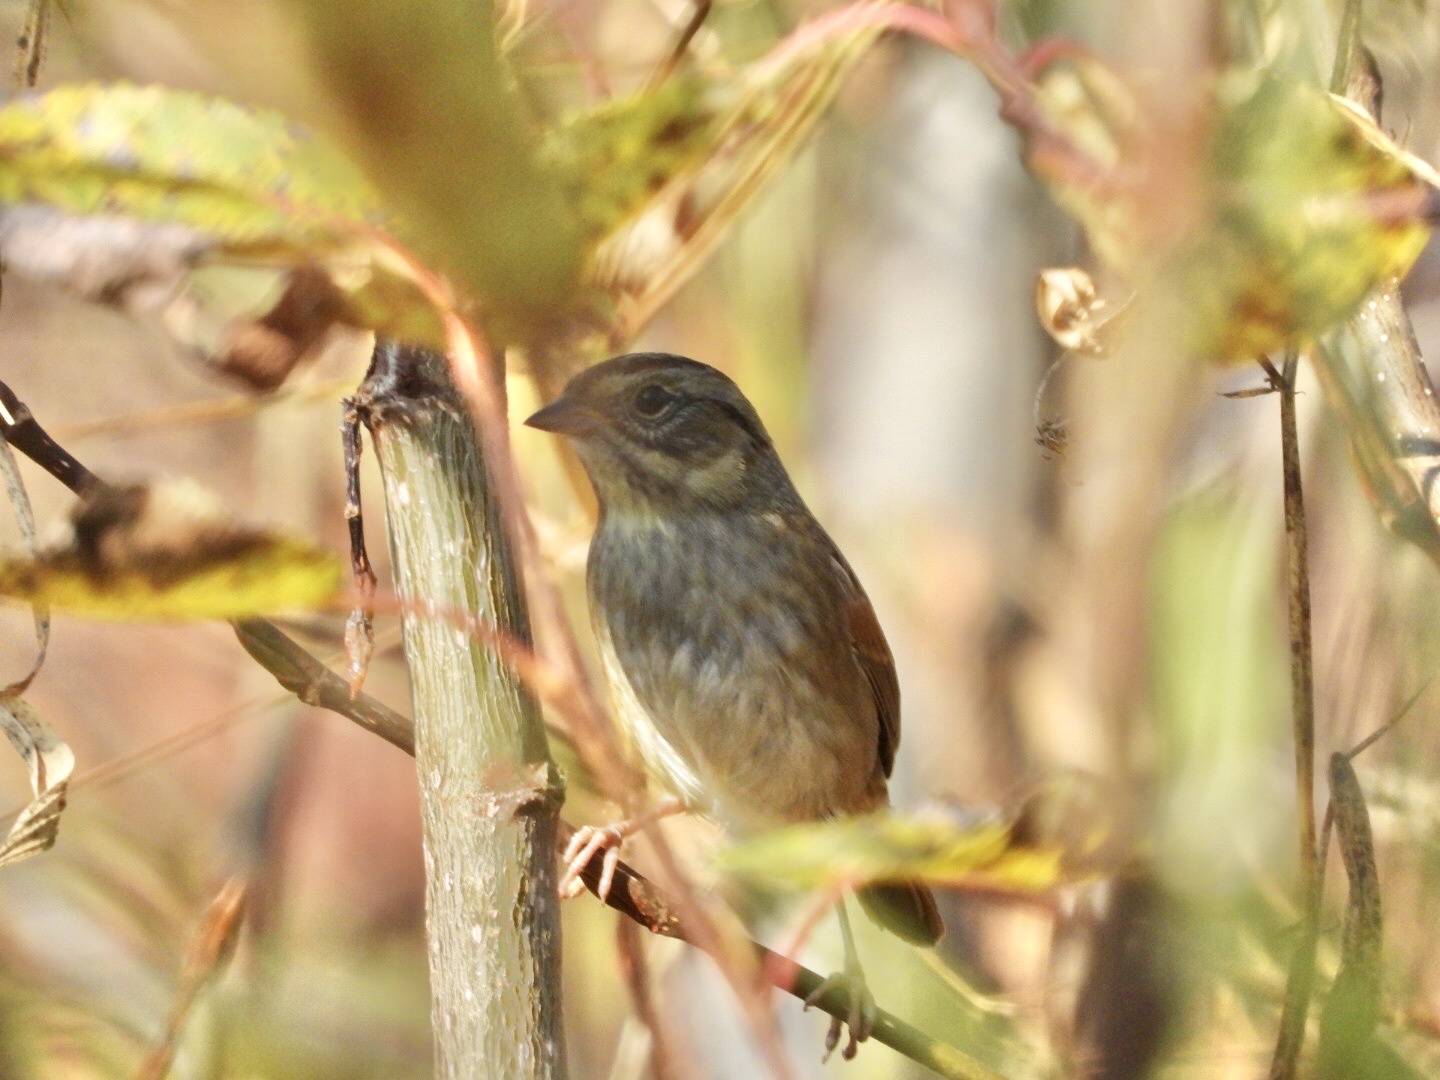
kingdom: Animalia
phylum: Chordata
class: Aves
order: Passeriformes
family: Passerellidae
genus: Melospiza
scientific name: Melospiza georgiana
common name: Swamp sparrow
